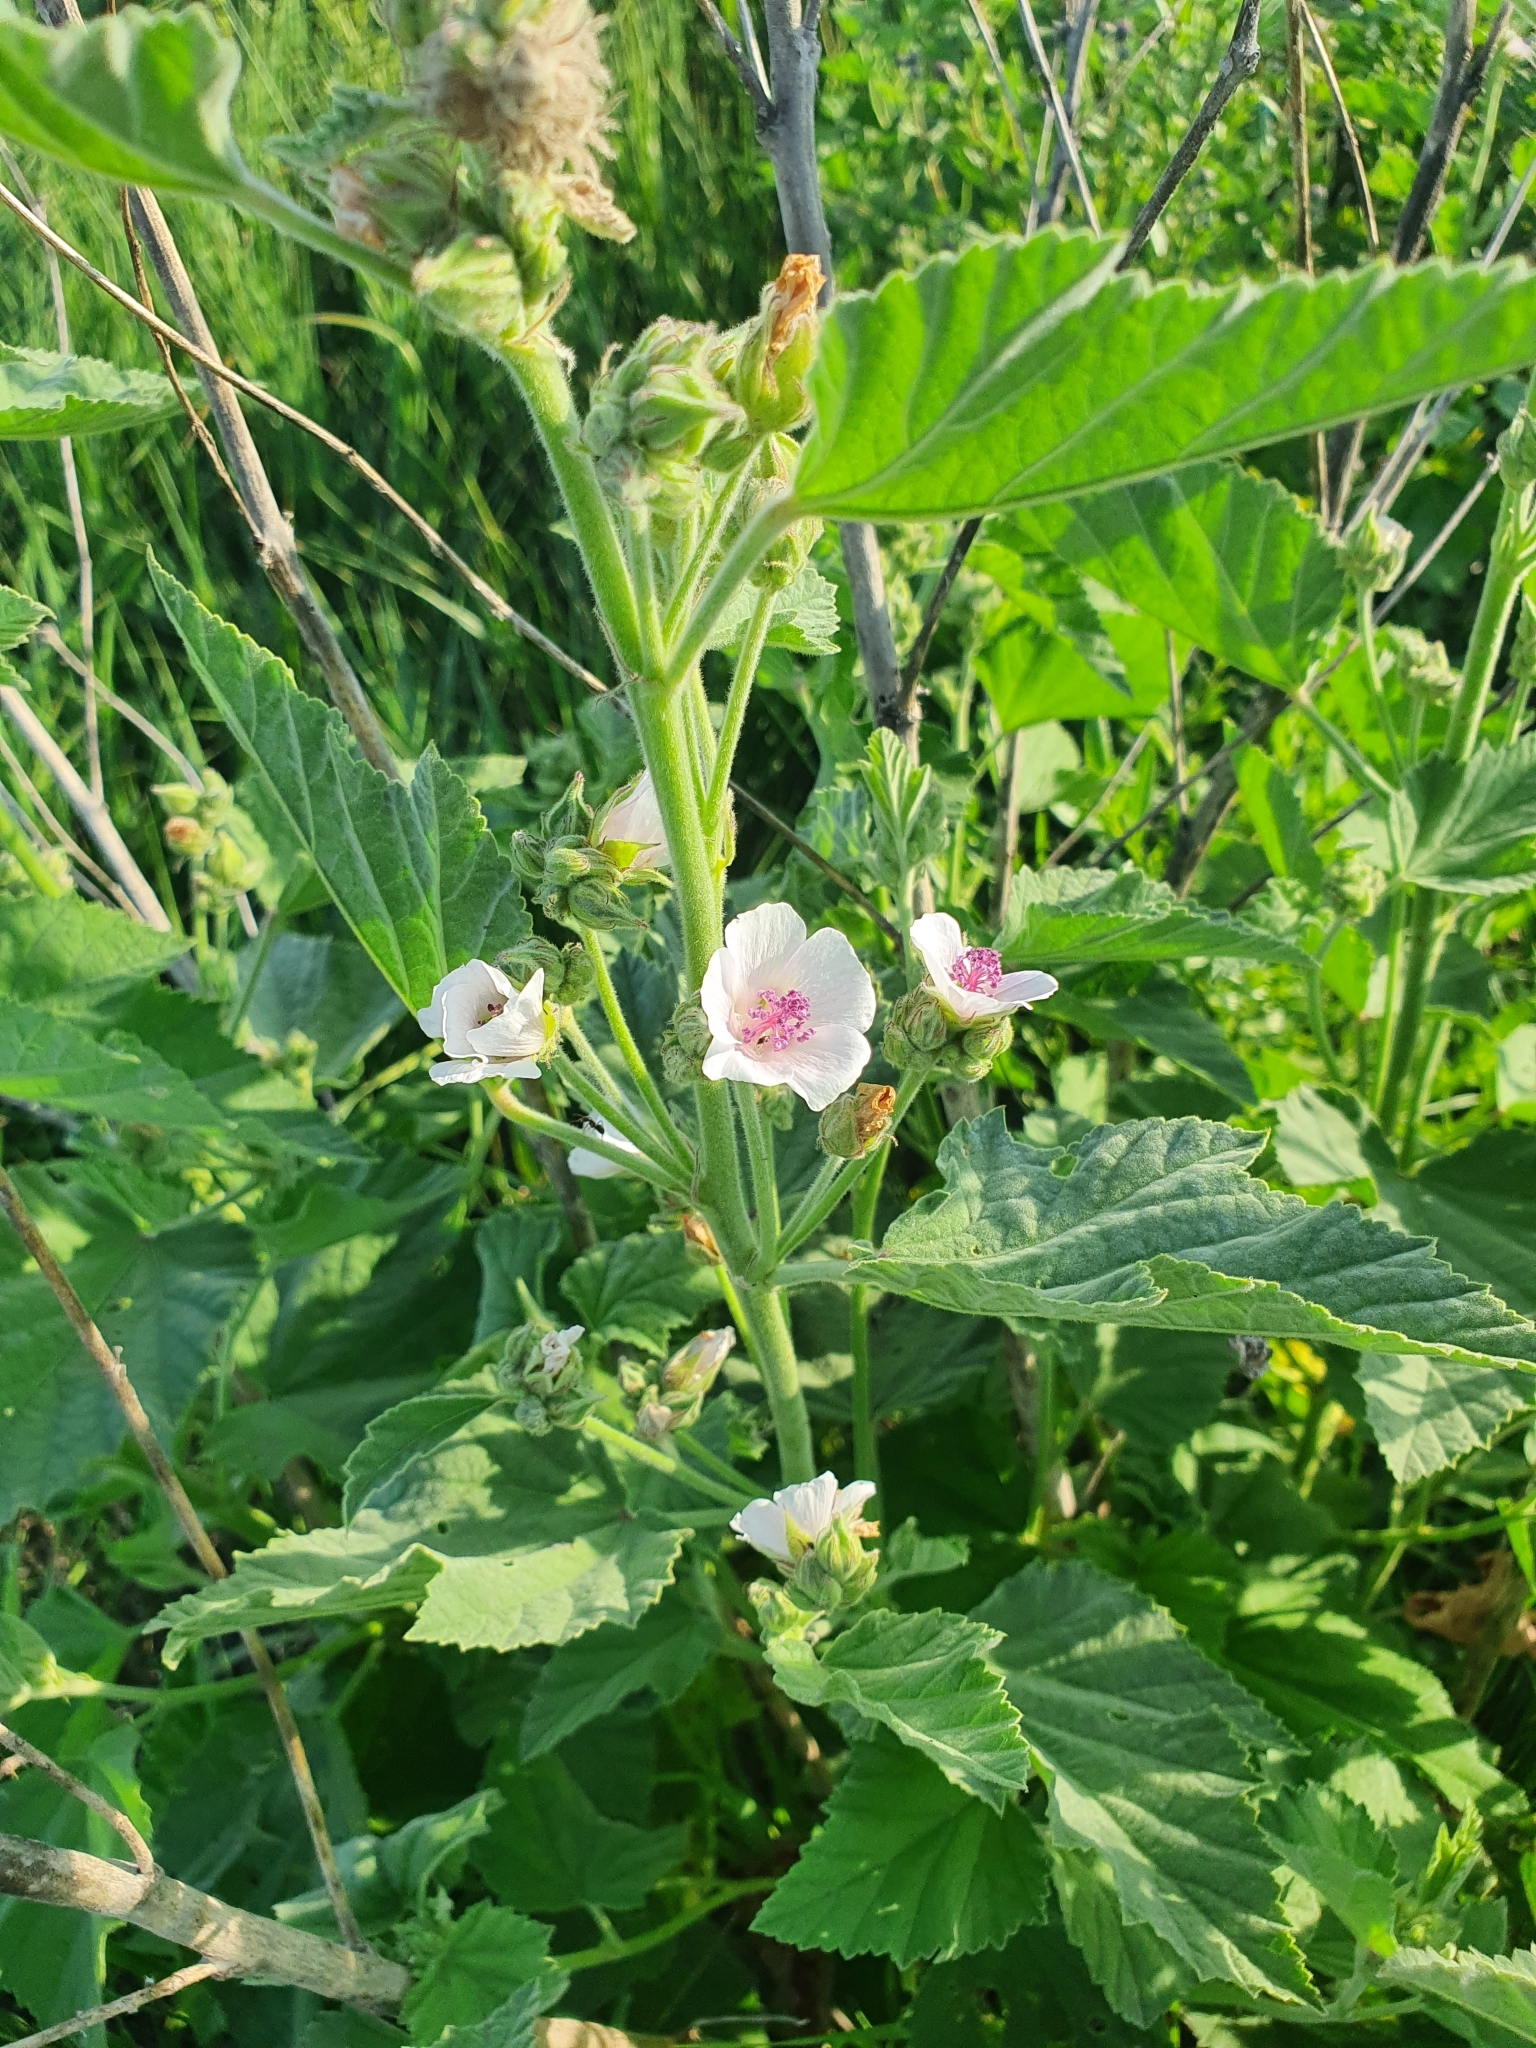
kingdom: Plantae
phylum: Tracheophyta
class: Magnoliopsida
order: Malvales
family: Malvaceae
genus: Althaea
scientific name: Althaea officinalis
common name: Marsh-mallow
